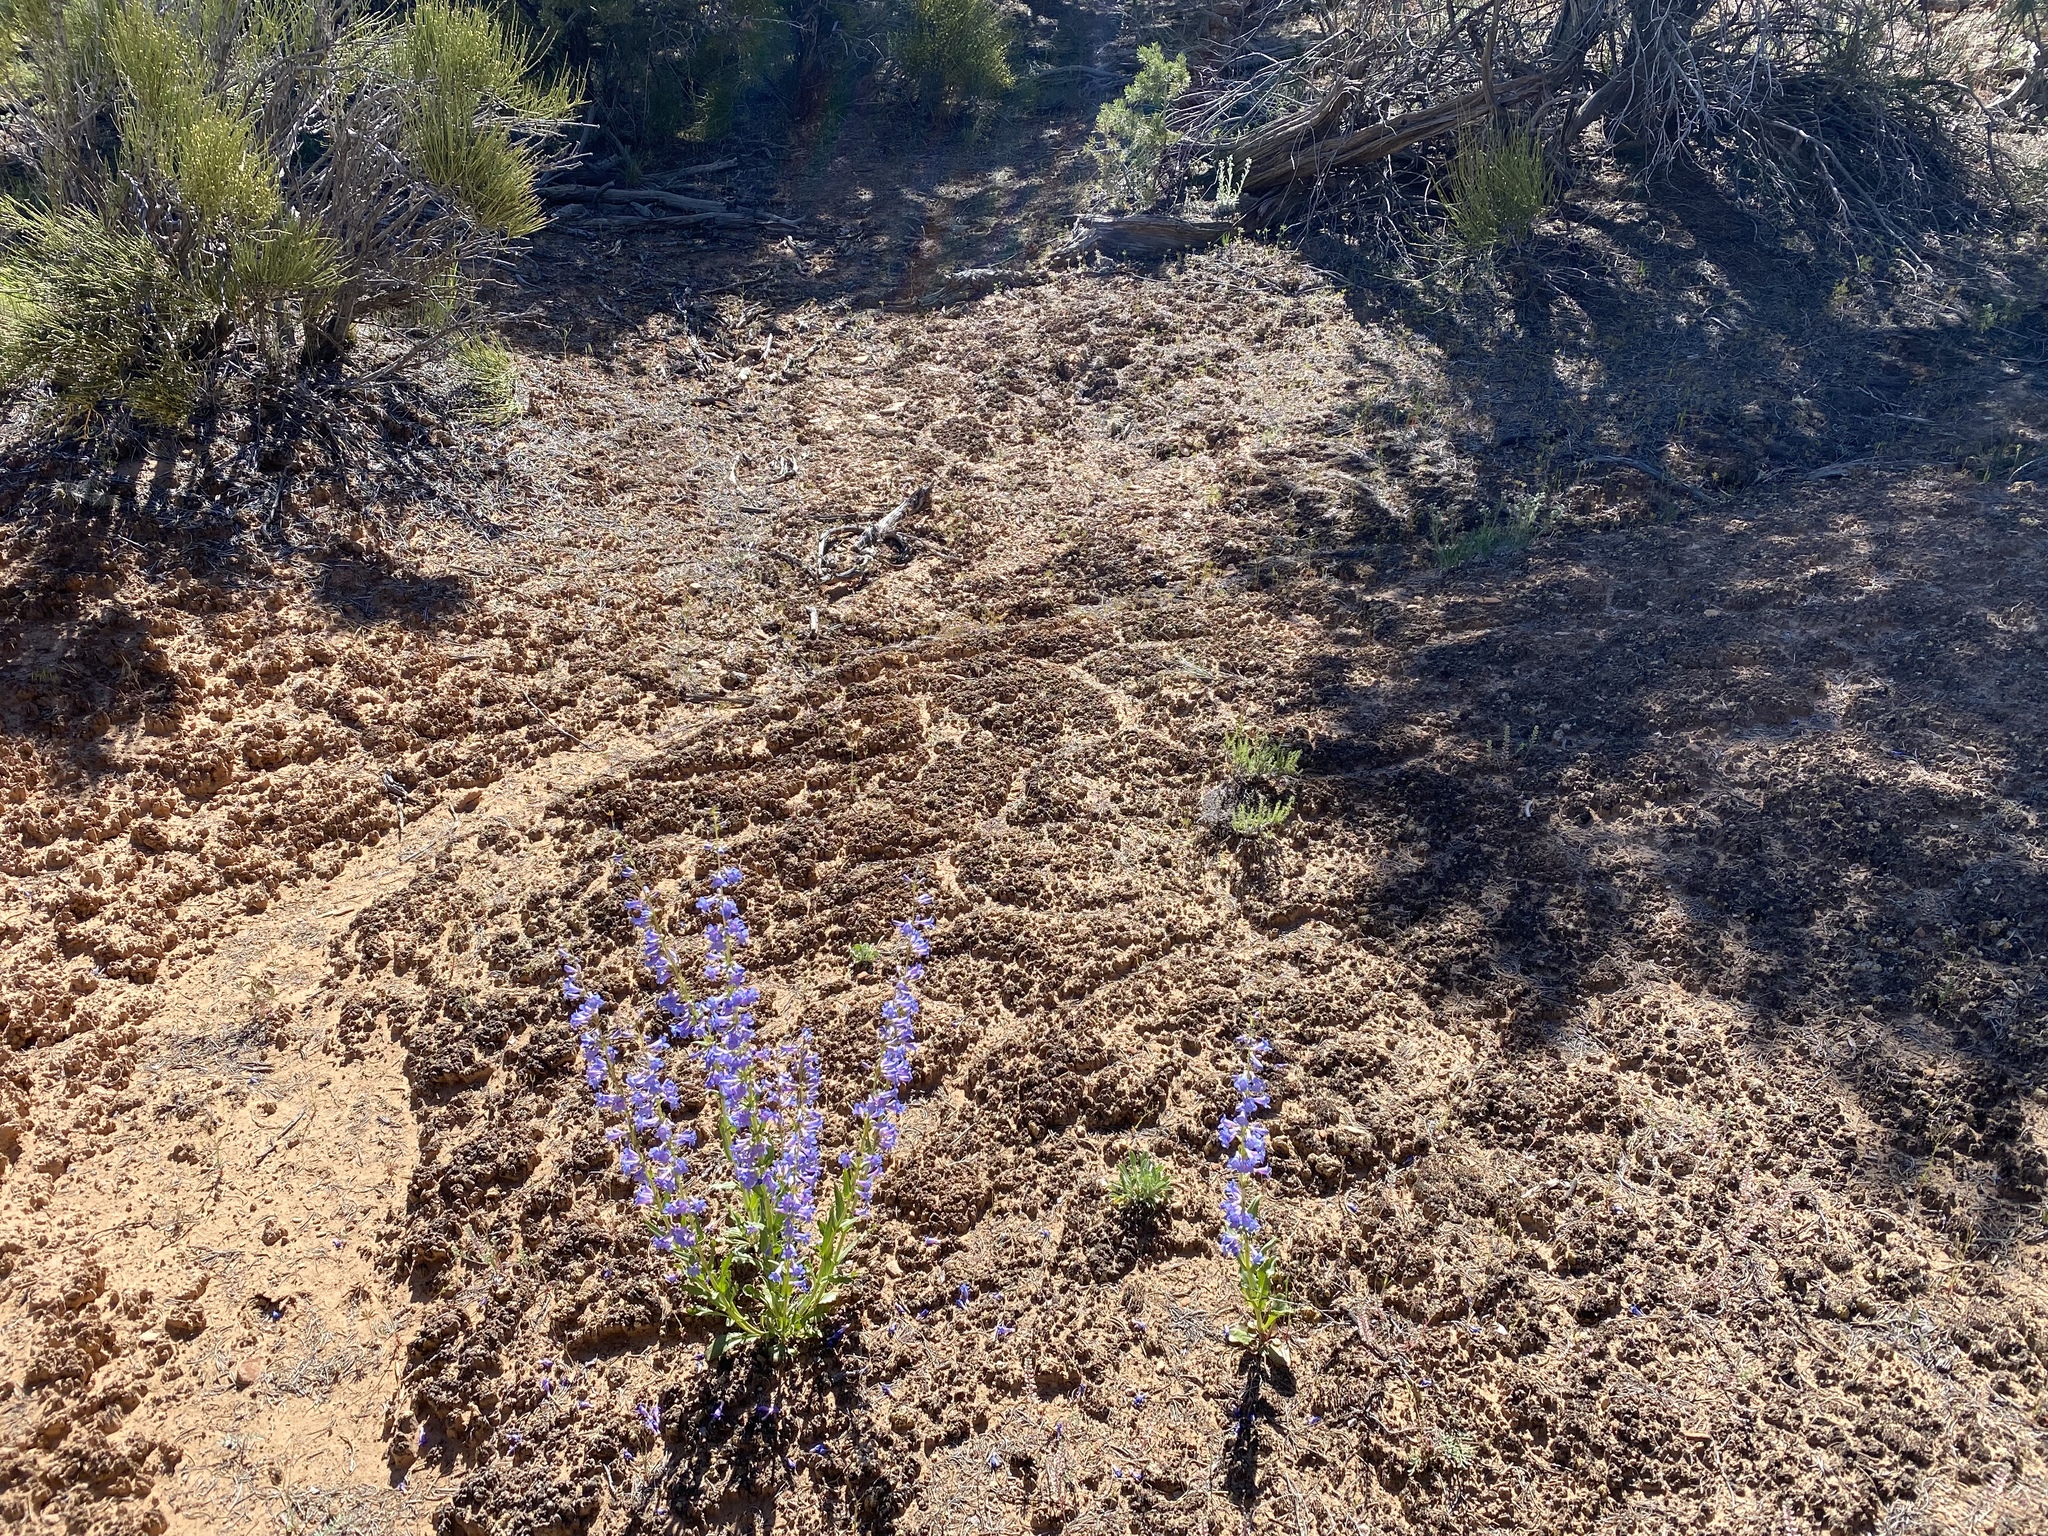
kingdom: Plantae
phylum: Tracheophyta
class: Magnoliopsida
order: Lamiales
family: Plantaginaceae
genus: Penstemon
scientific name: Penstemon cyanocaulis
